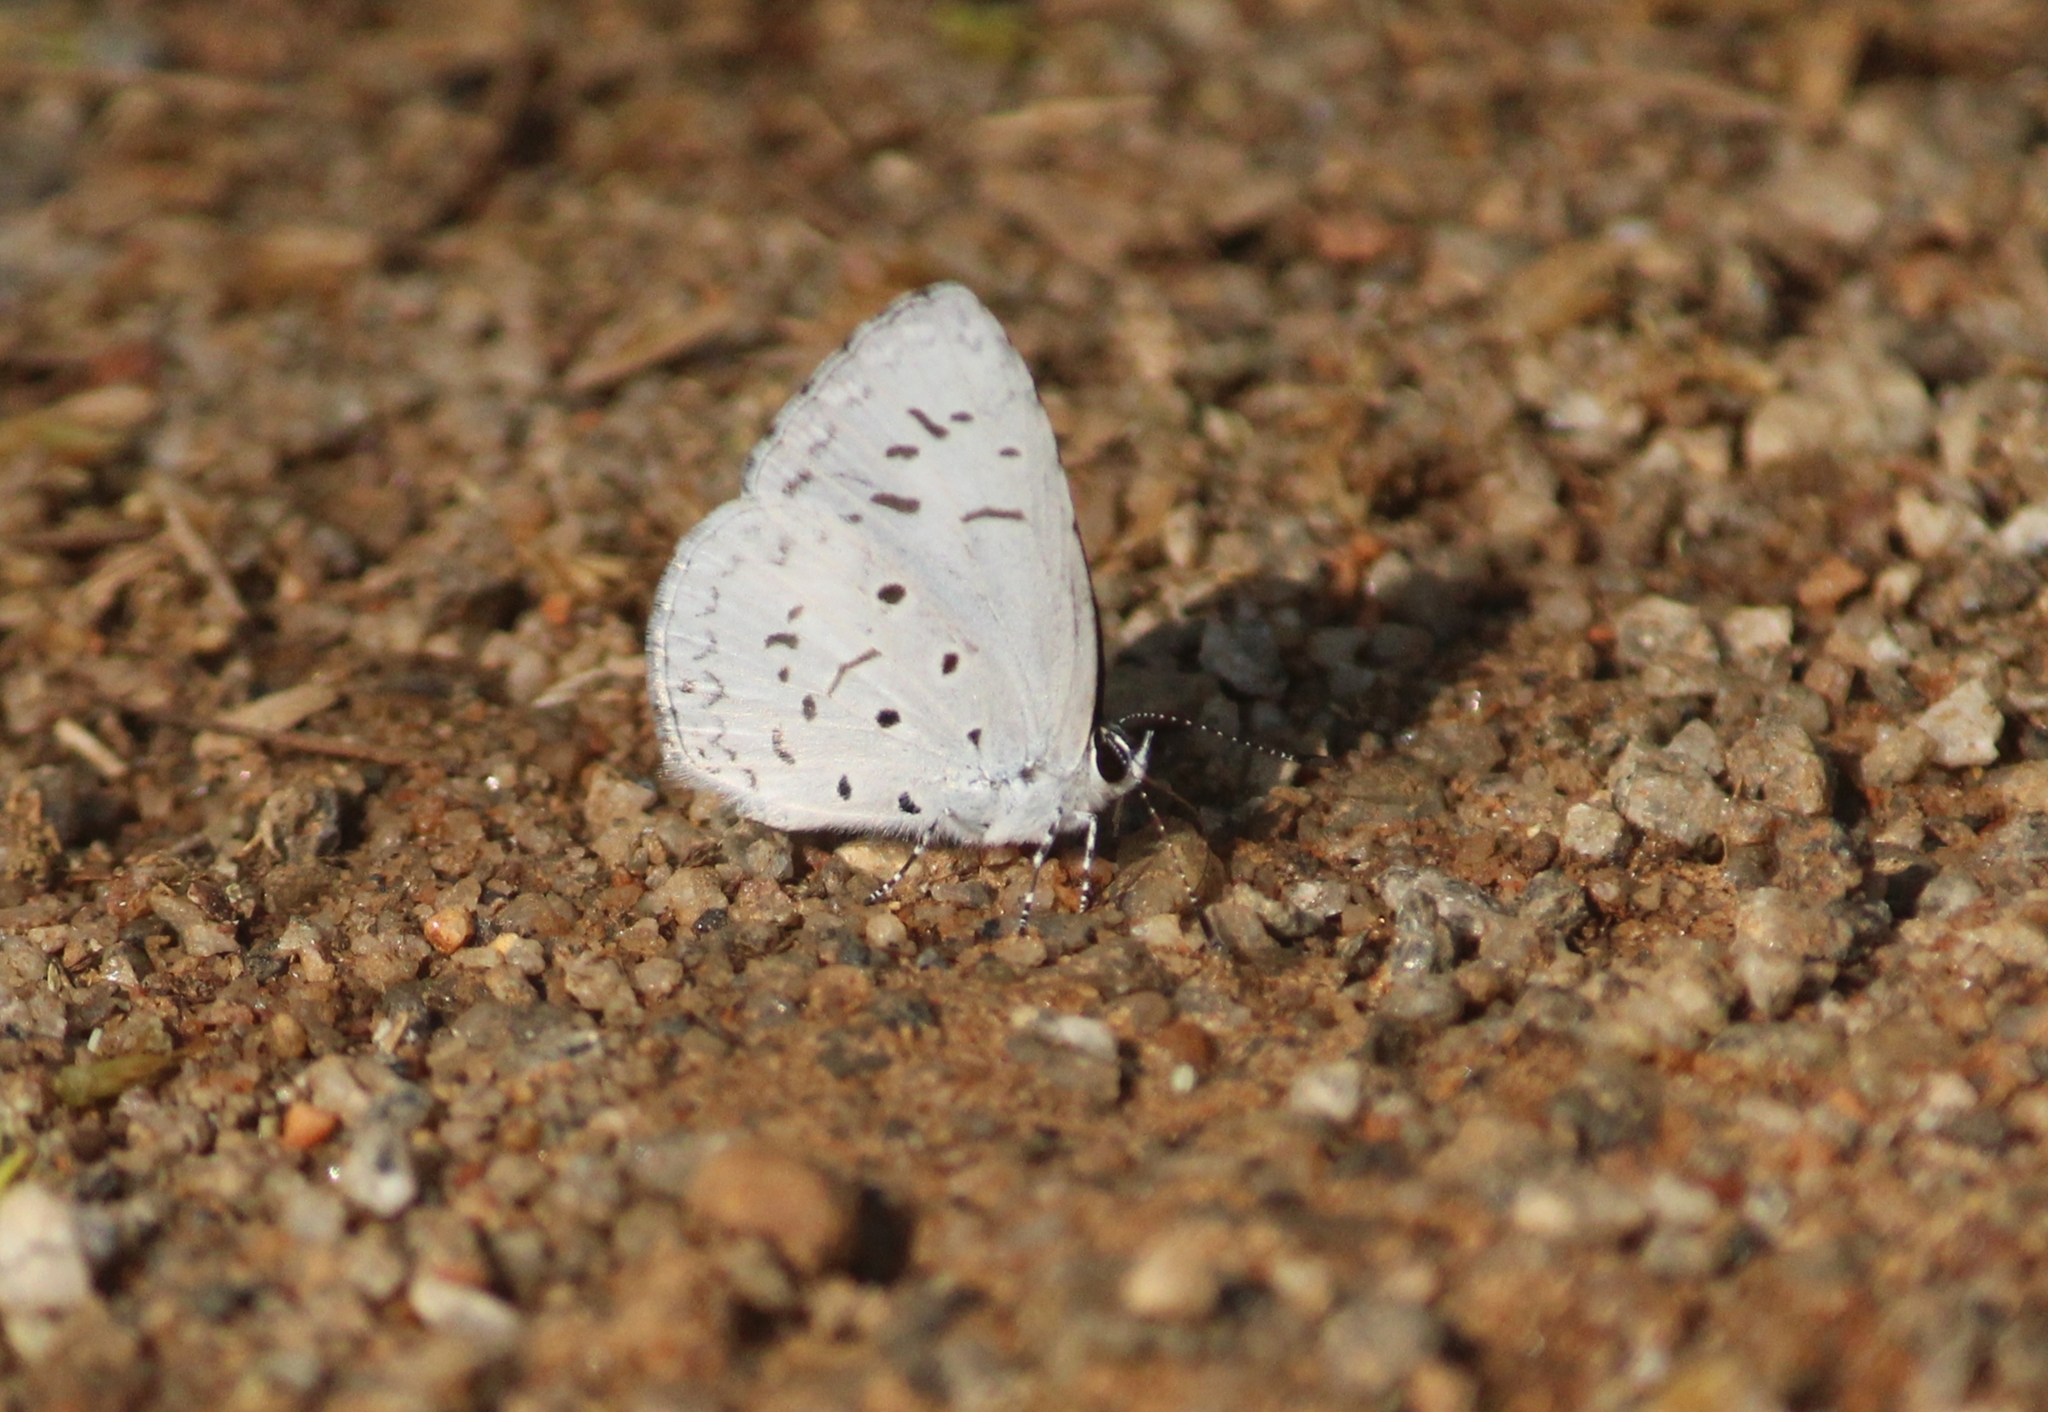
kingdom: Animalia
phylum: Arthropoda
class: Insecta
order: Lepidoptera
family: Lycaenidae
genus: Acytolepis
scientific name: Acytolepis puspa
